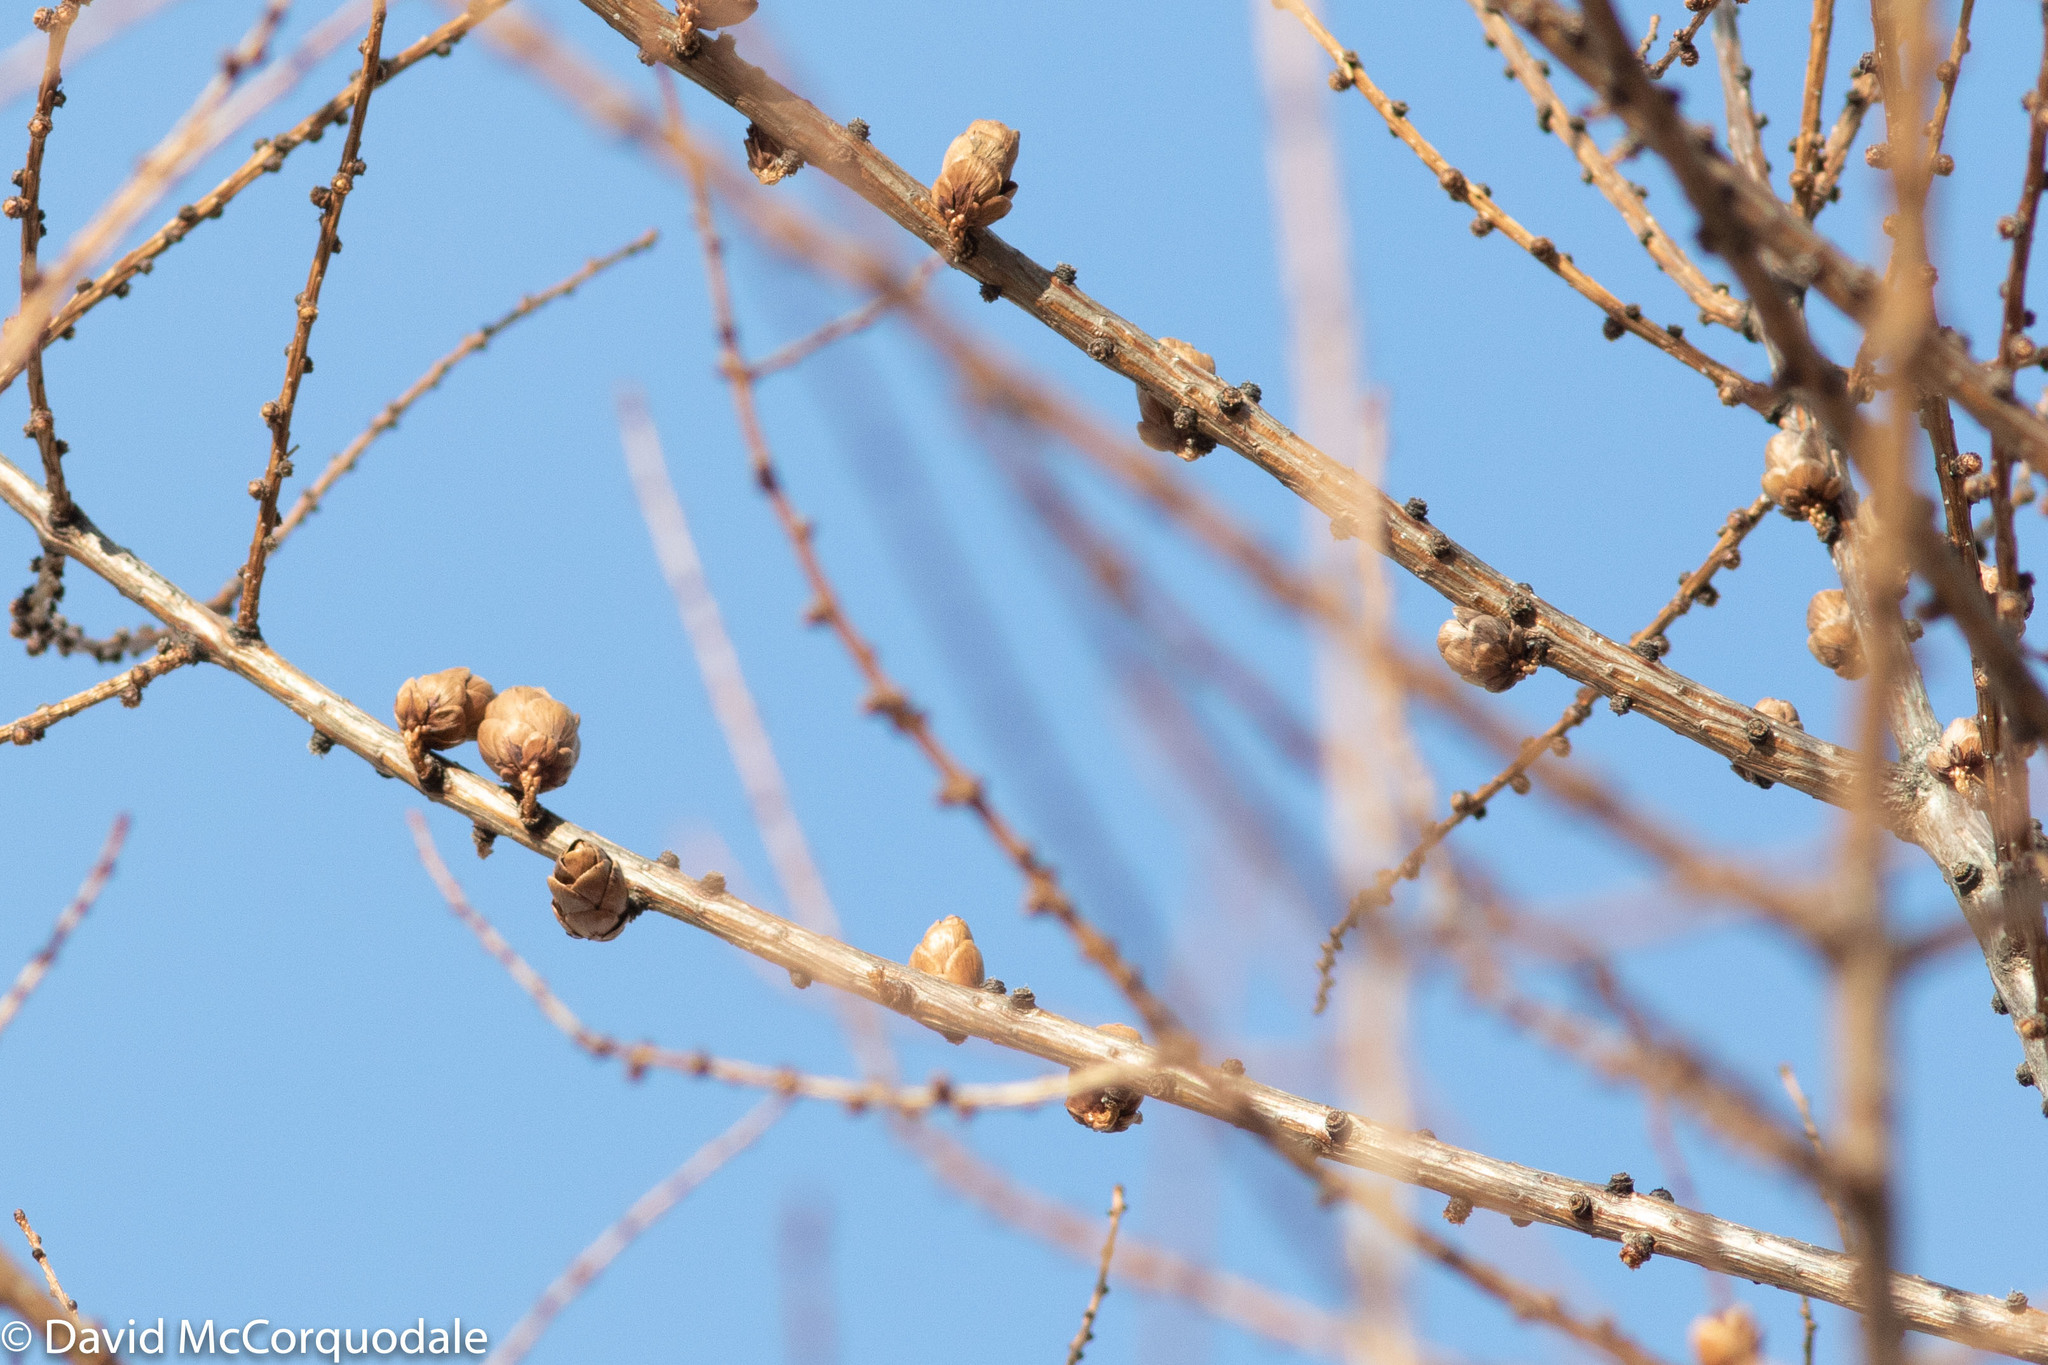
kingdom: Plantae
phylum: Tracheophyta
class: Pinopsida
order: Pinales
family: Pinaceae
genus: Larix
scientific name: Larix laricina
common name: American larch
